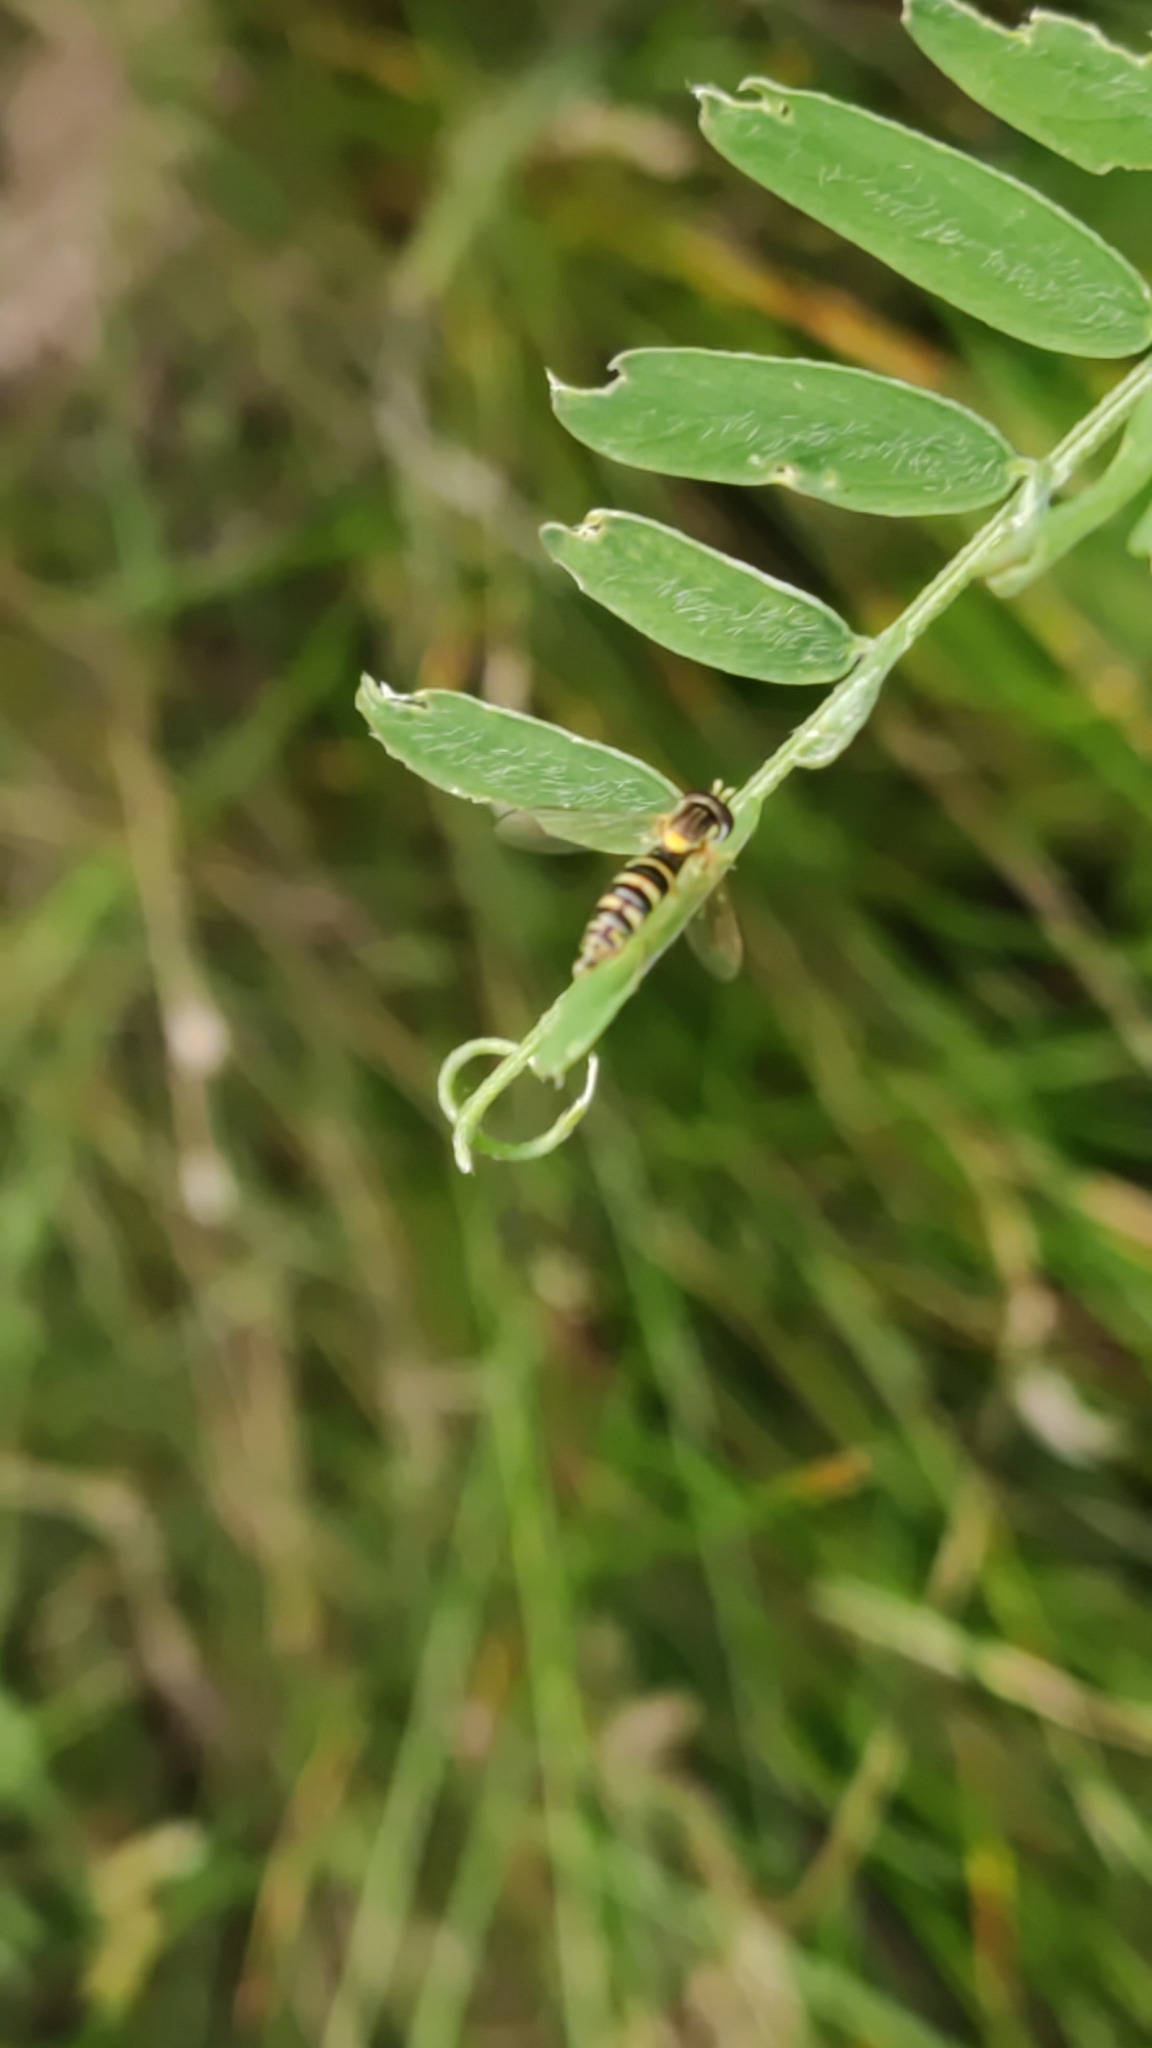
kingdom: Animalia
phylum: Arthropoda
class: Insecta
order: Diptera
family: Syrphidae
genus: Sphaerophoria
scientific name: Sphaerophoria
